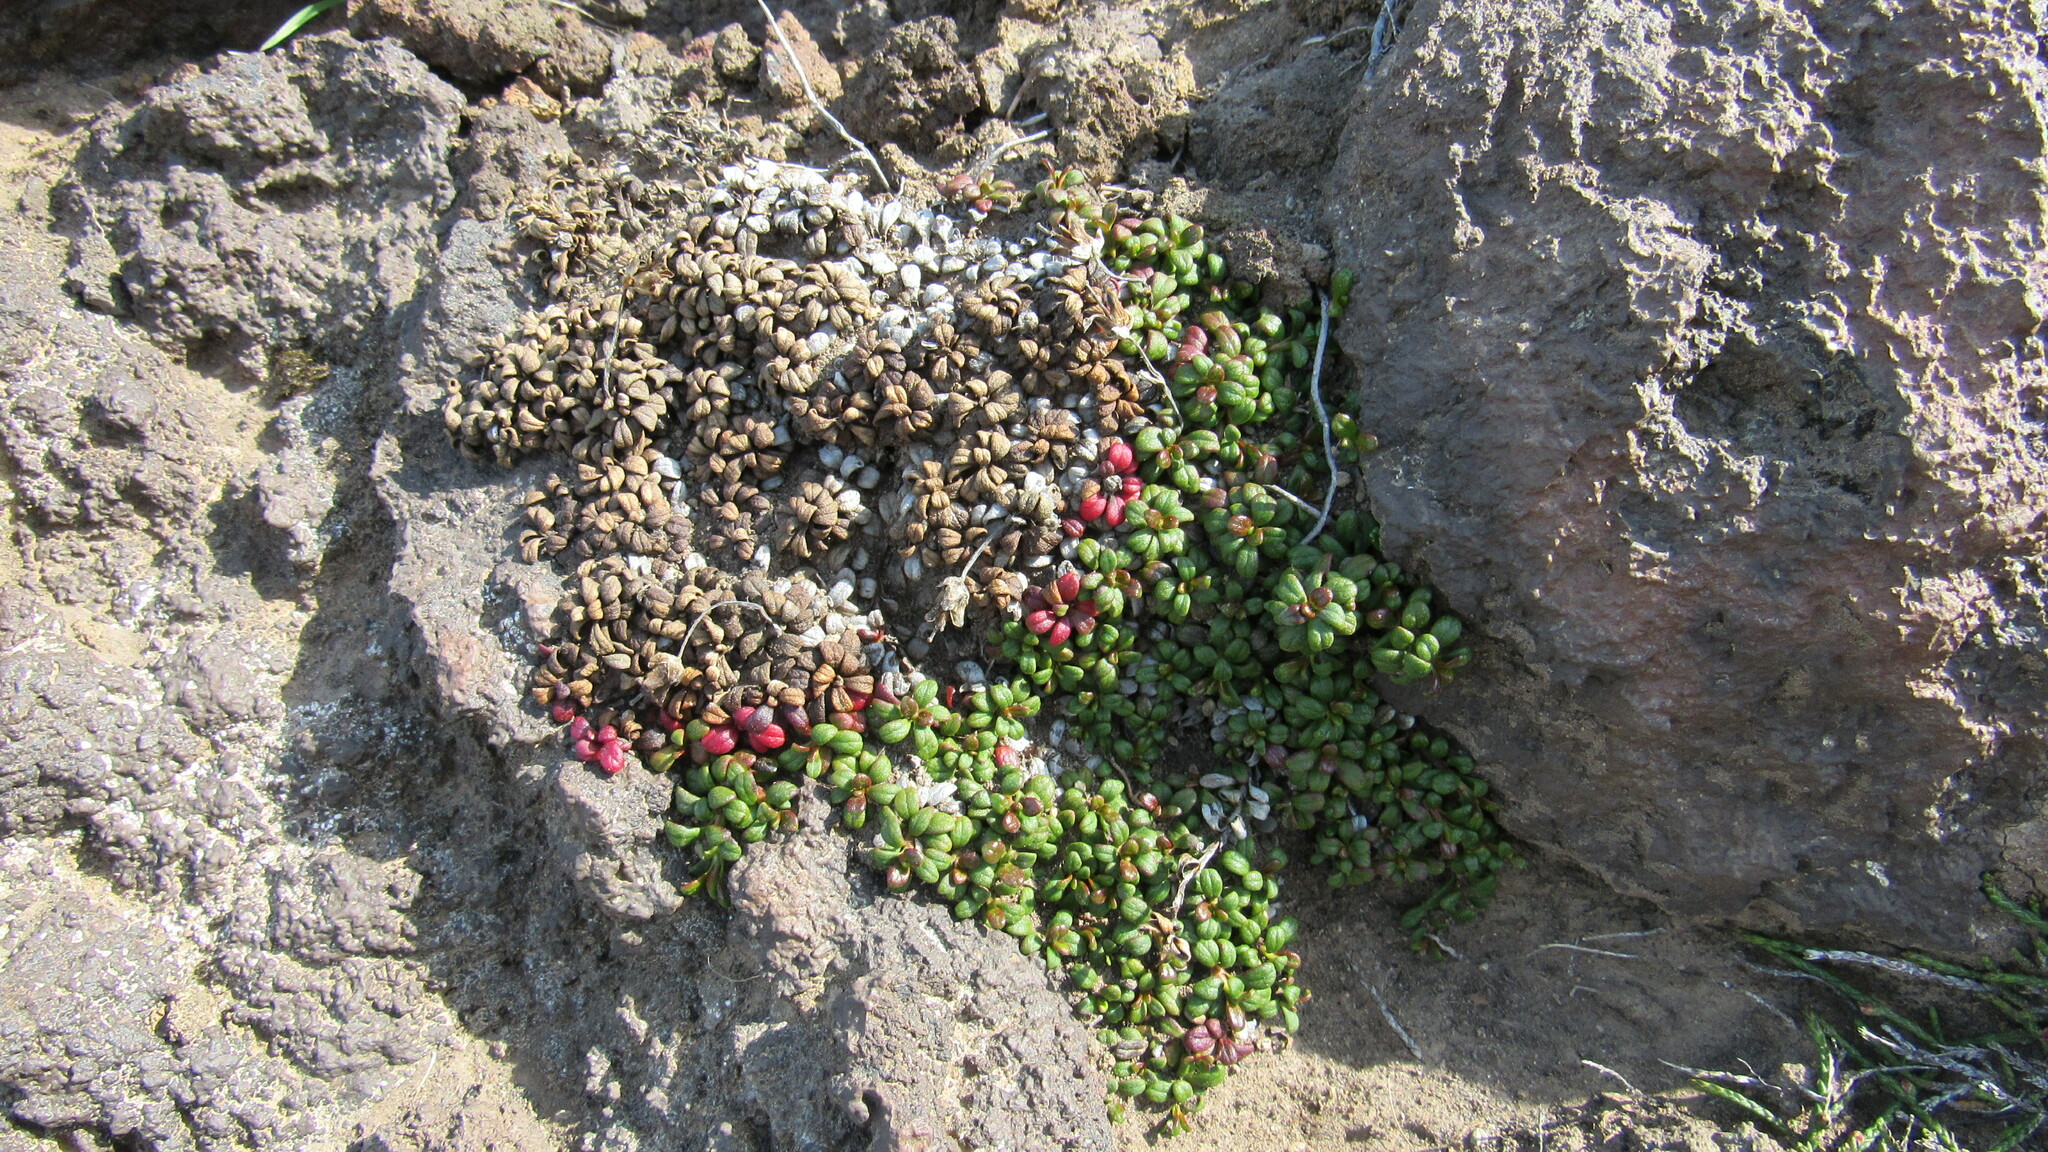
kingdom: Plantae
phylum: Tracheophyta
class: Magnoliopsida
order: Ericales
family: Diapensiaceae
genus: Diapensia
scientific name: Diapensia obovata
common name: Alaska diapensia
